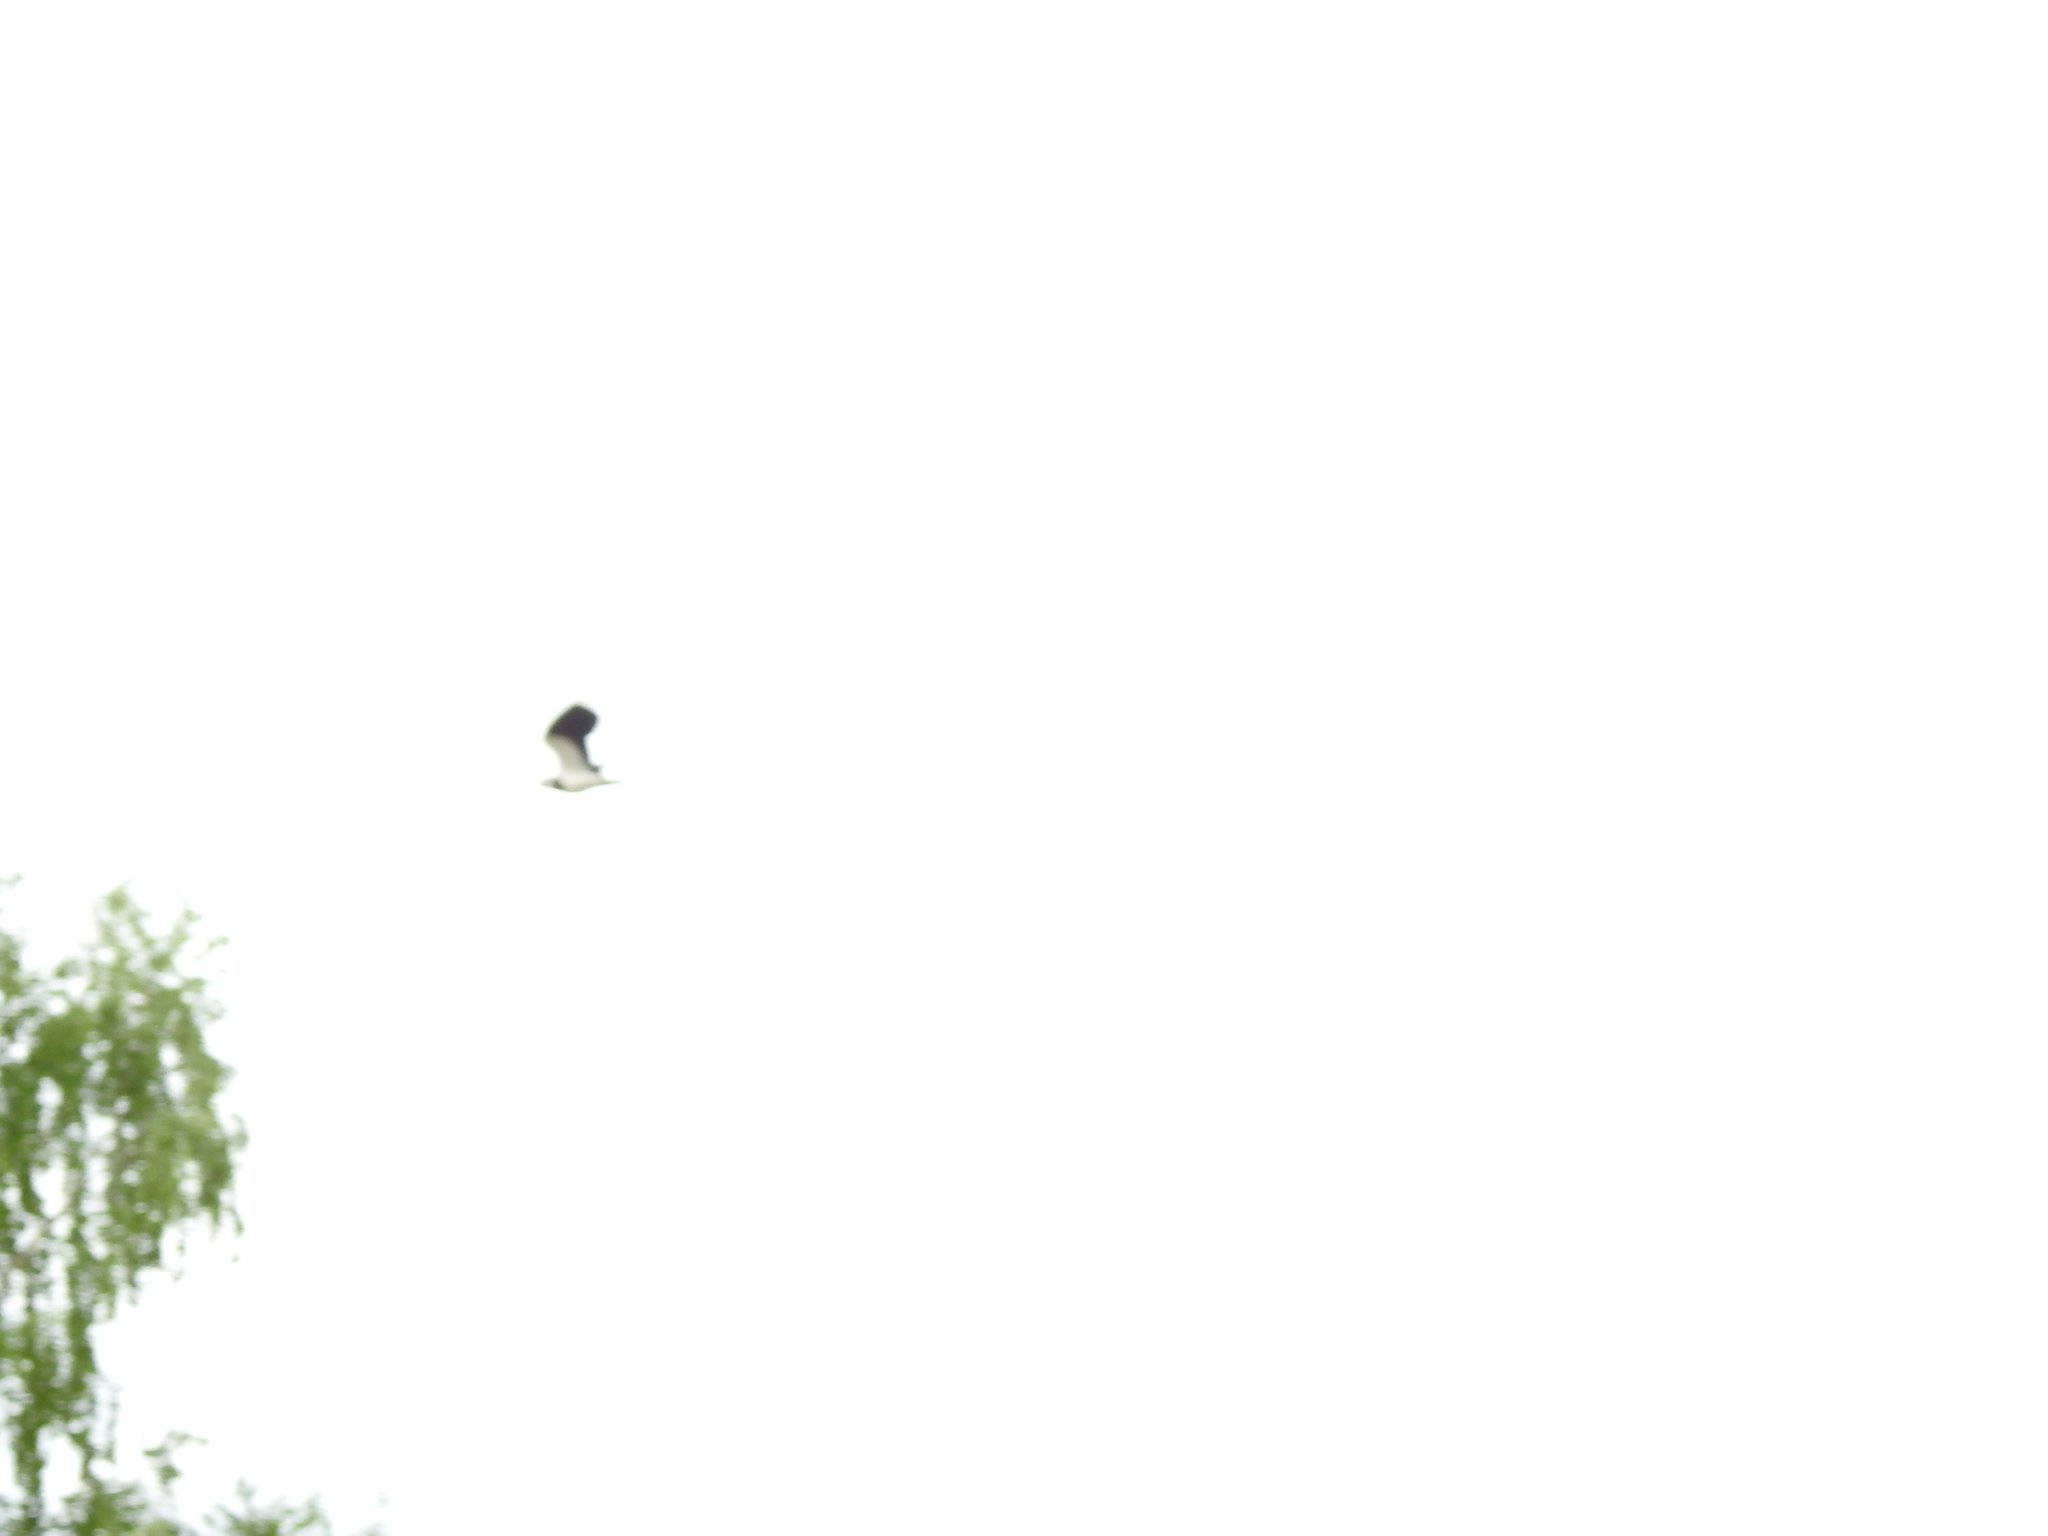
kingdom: Animalia
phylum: Chordata
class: Aves
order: Charadriiformes
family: Charadriidae
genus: Vanellus
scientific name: Vanellus vanellus
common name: Northern lapwing
